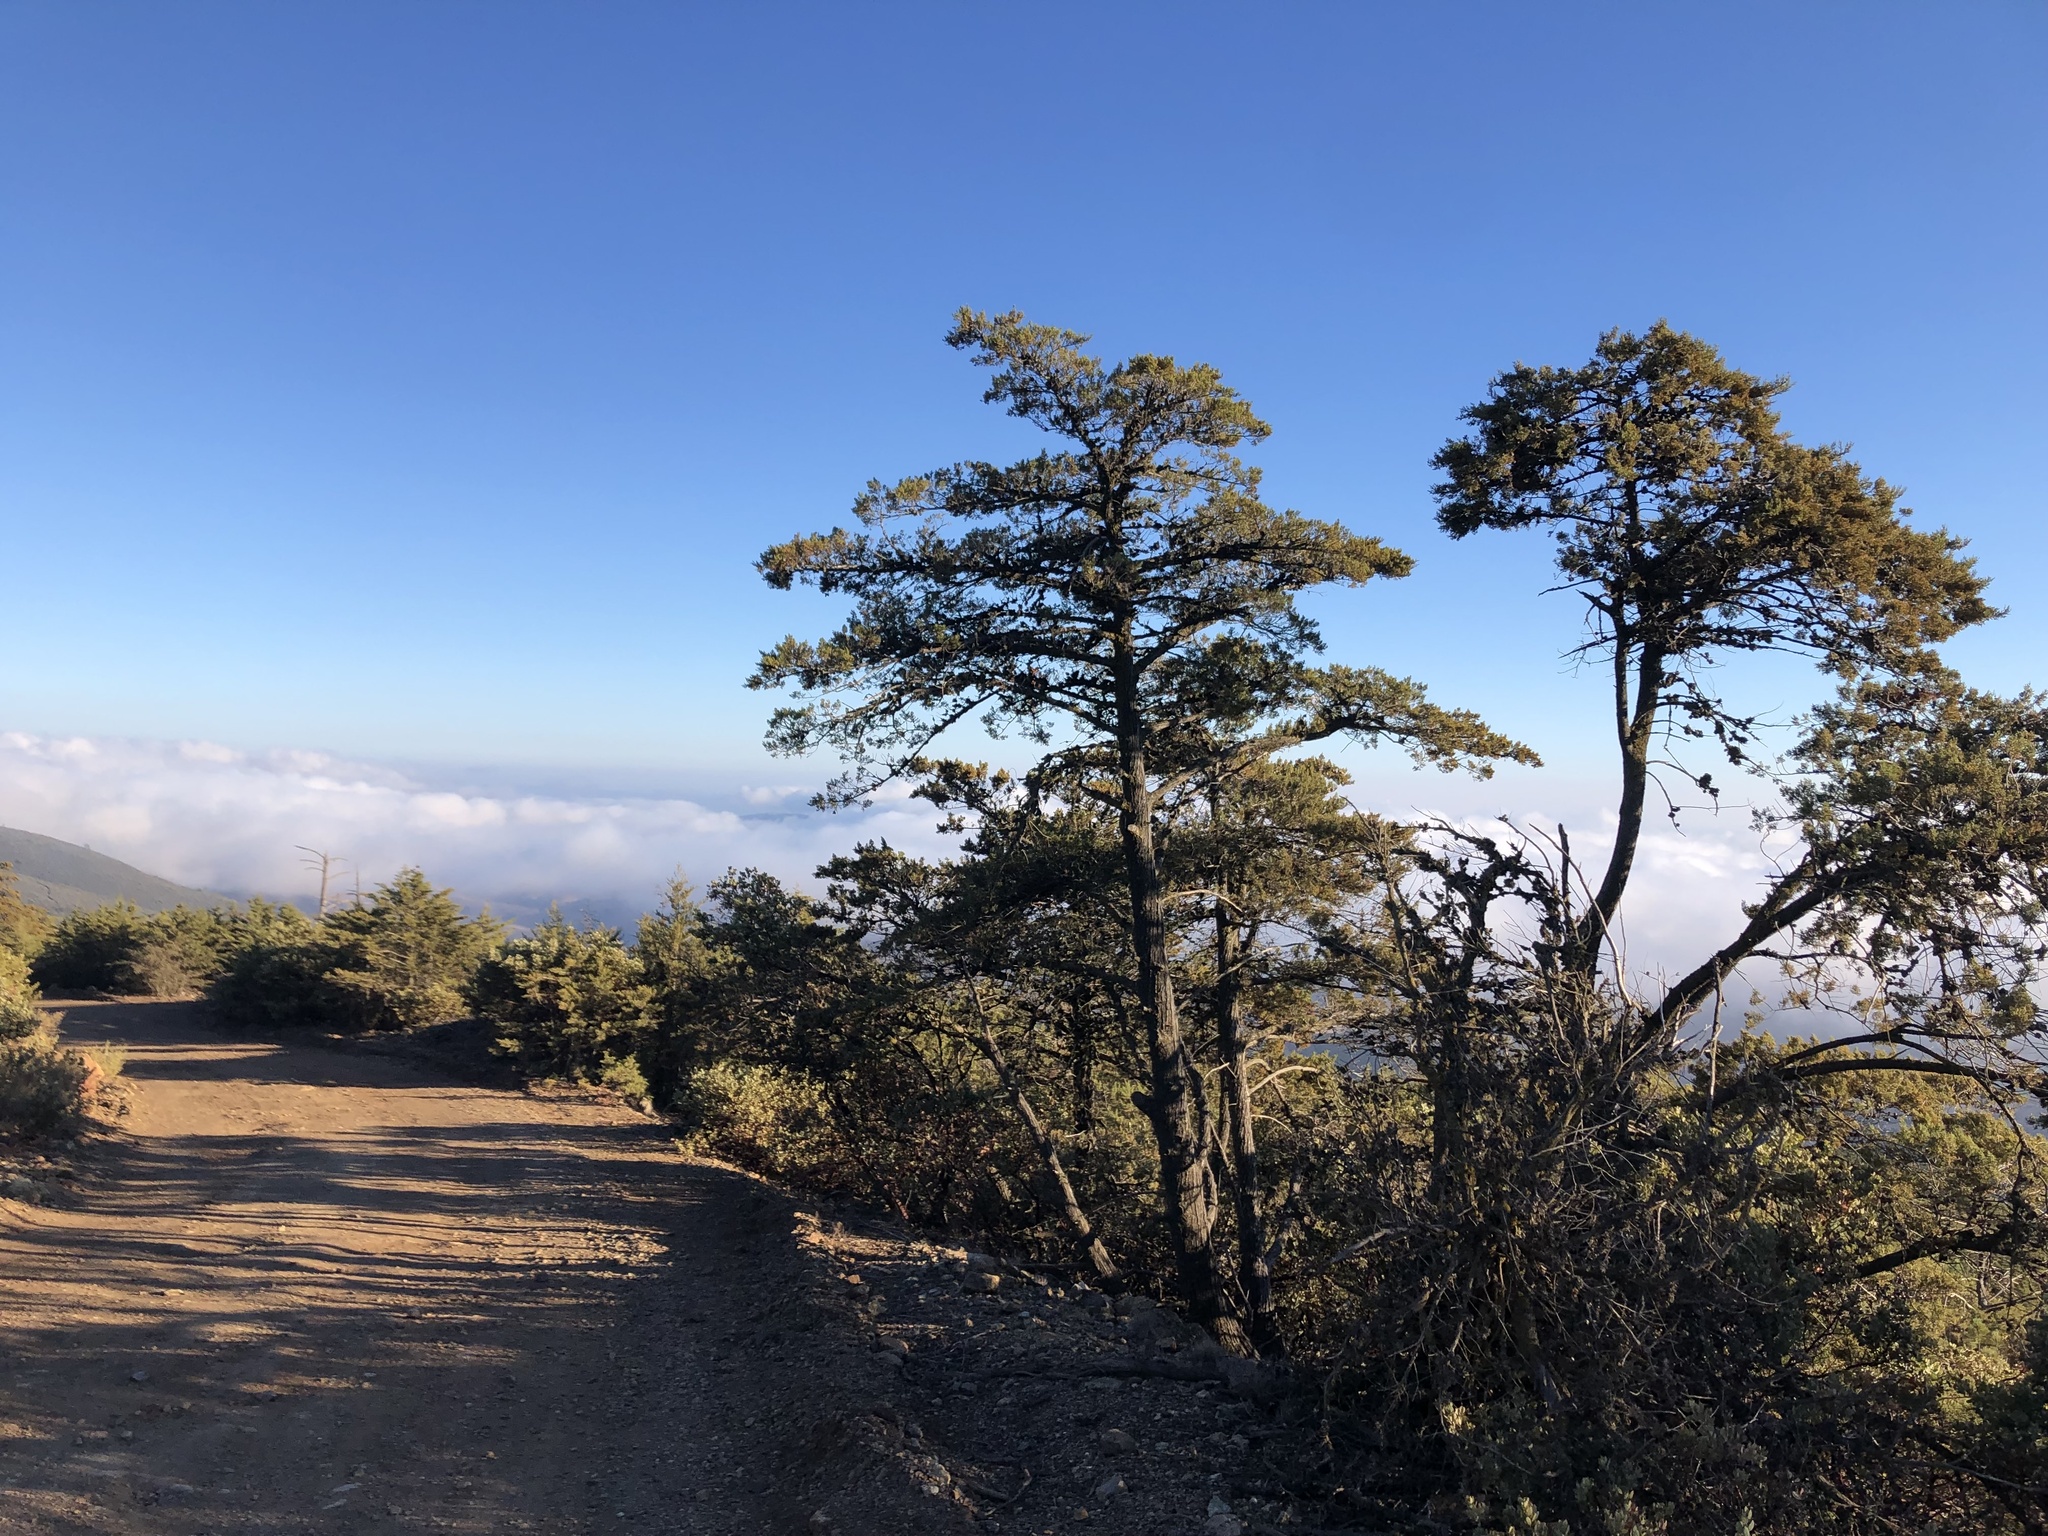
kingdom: Plantae
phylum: Tracheophyta
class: Pinopsida
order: Pinales
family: Cupressaceae
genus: Cupressus
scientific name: Cupressus sargentii
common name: Sargent cypress
